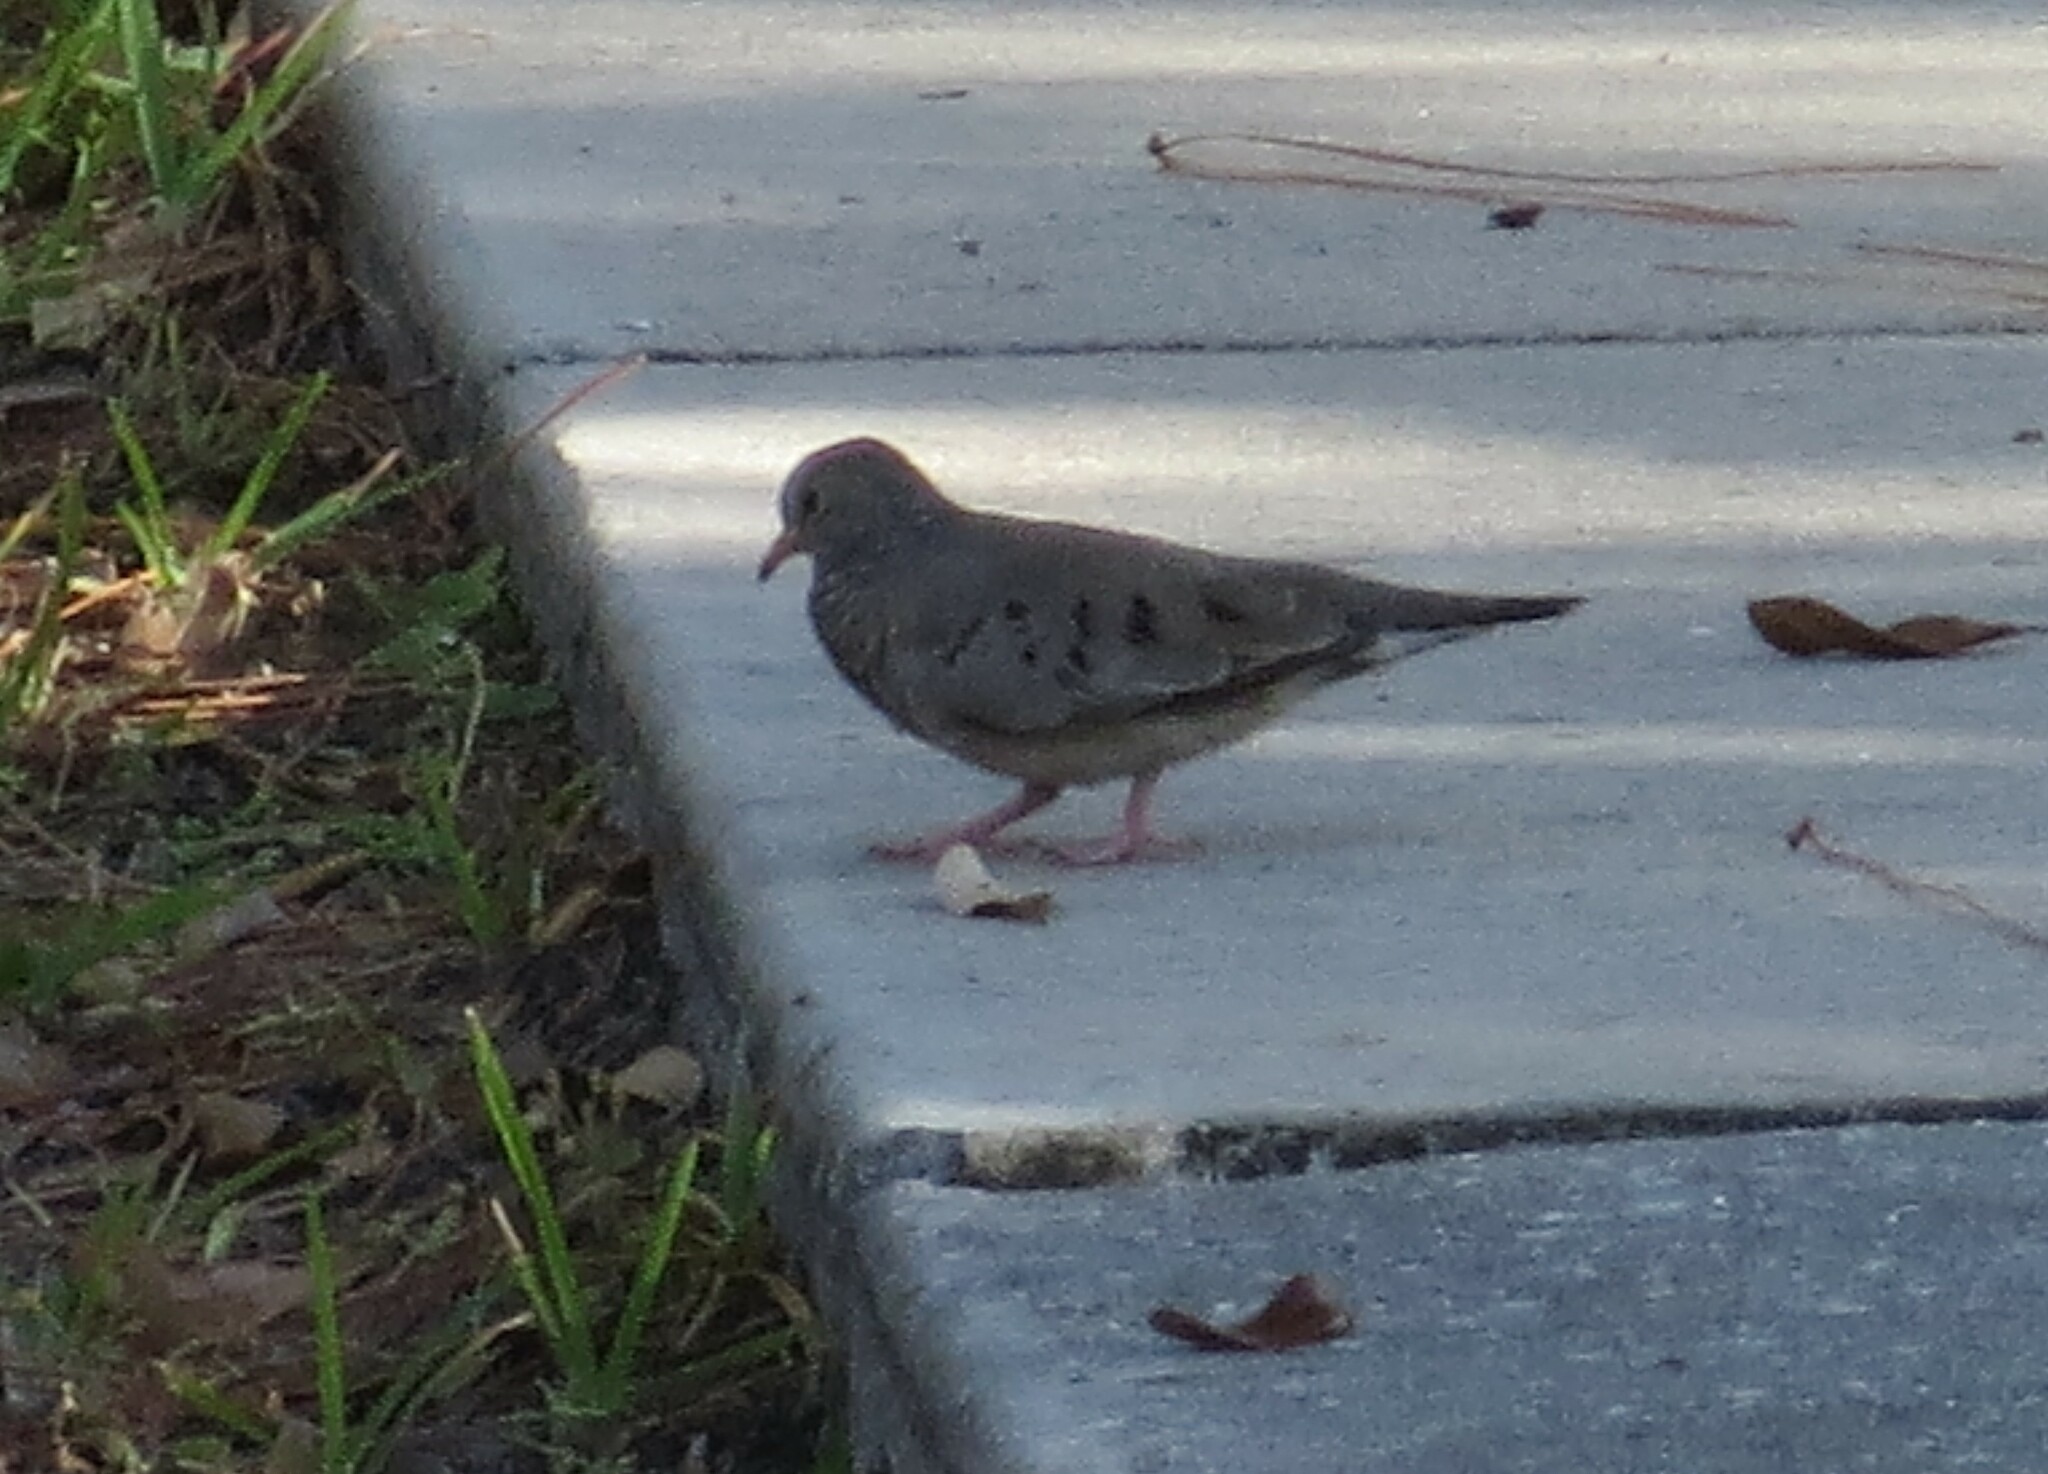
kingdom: Animalia
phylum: Chordata
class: Aves
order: Columbiformes
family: Columbidae
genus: Columbina
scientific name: Columbina passerina
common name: Common ground-dove
